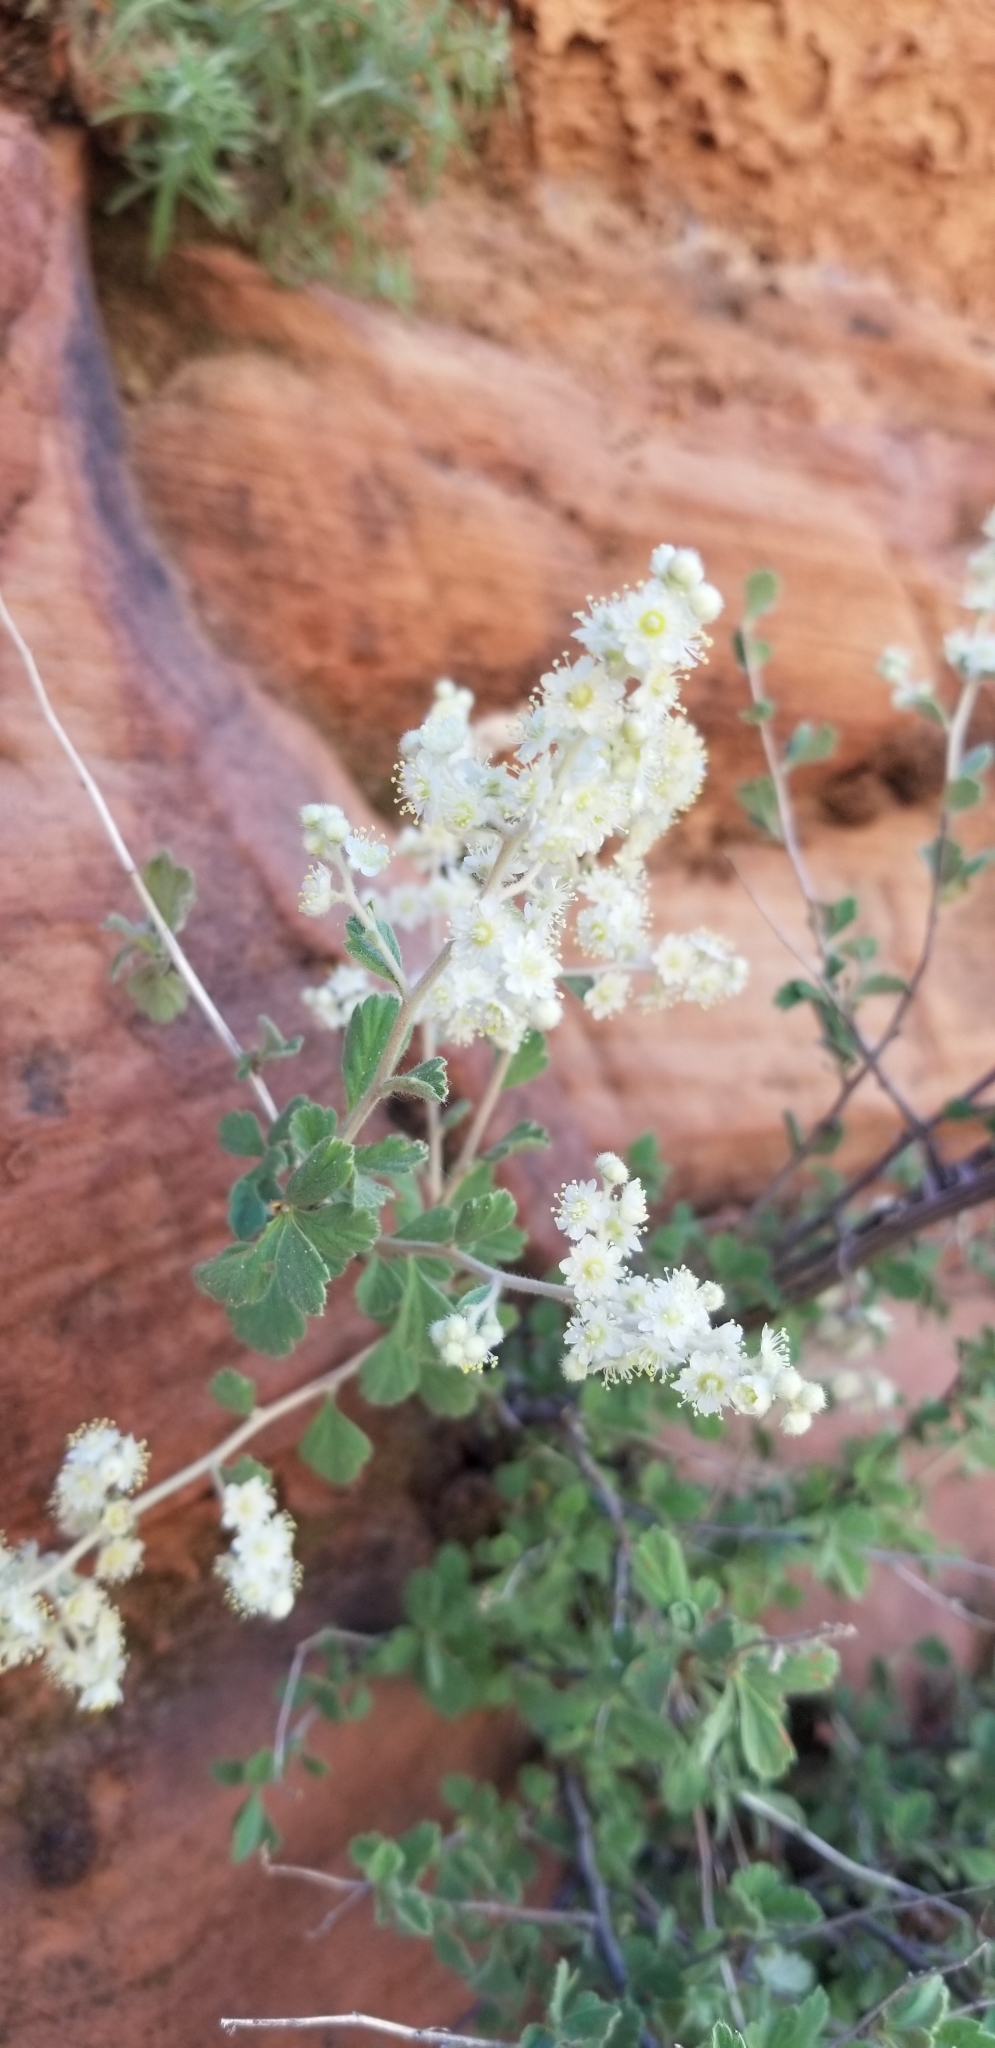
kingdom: Plantae
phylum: Tracheophyta
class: Magnoliopsida
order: Rosales
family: Rosaceae
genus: Holodiscus
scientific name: Holodiscus discolor
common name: Oceanspray
